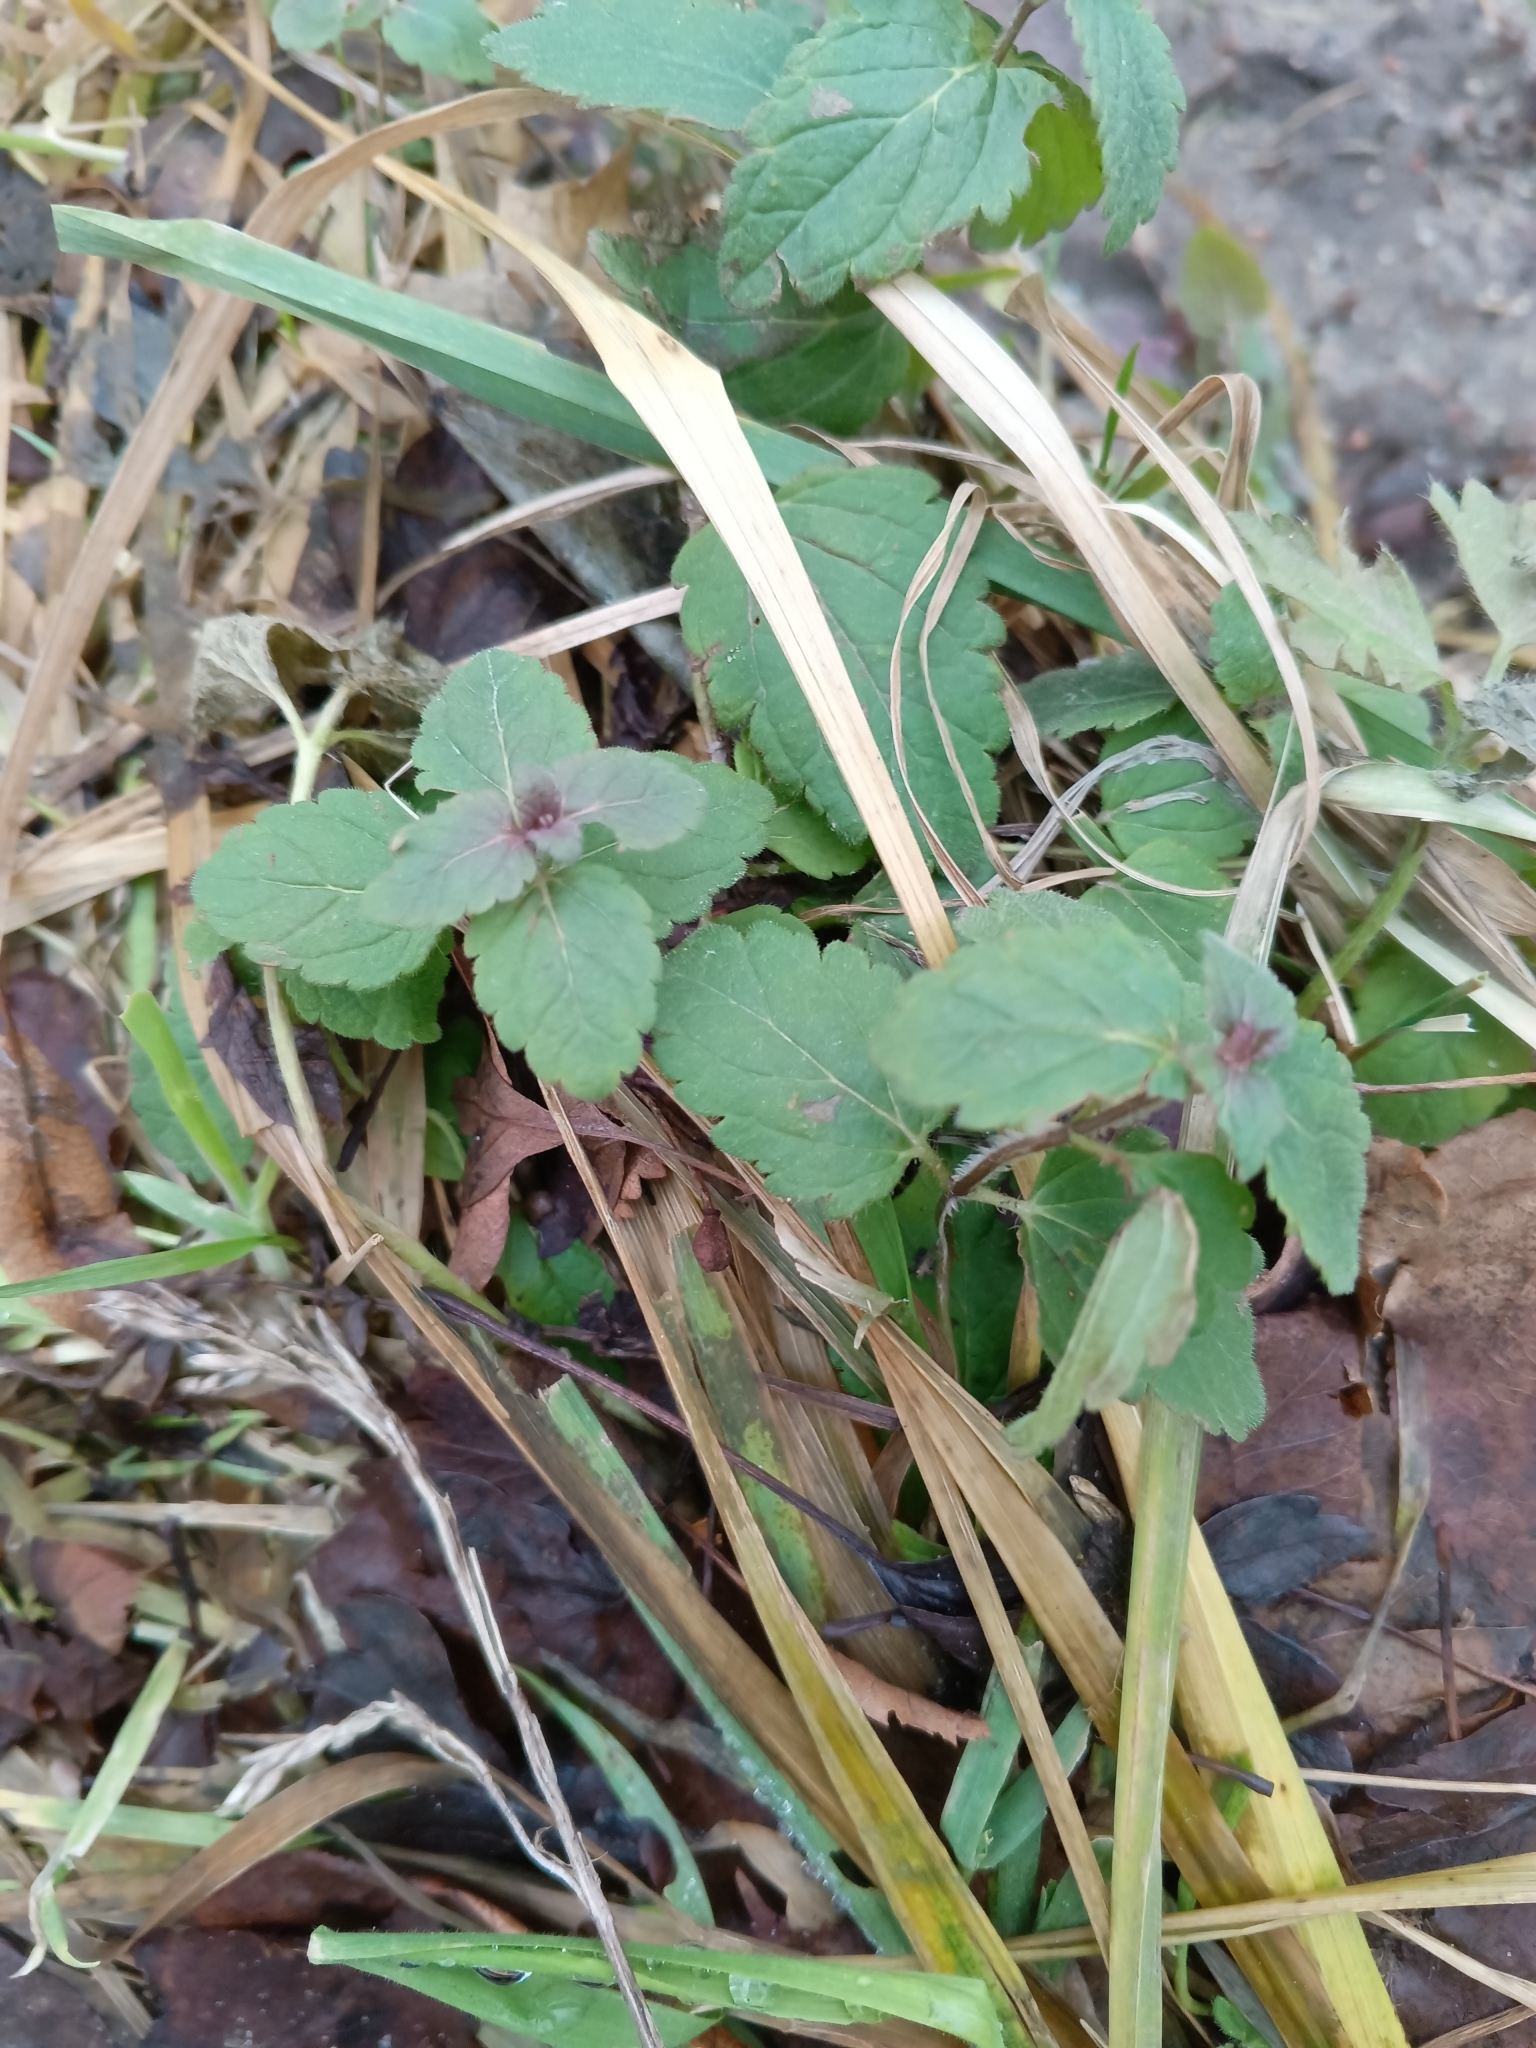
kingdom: Plantae
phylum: Tracheophyta
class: Magnoliopsida
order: Lamiales
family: Plantaginaceae
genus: Veronica
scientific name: Veronica chamaedrys
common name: Germander speedwell
